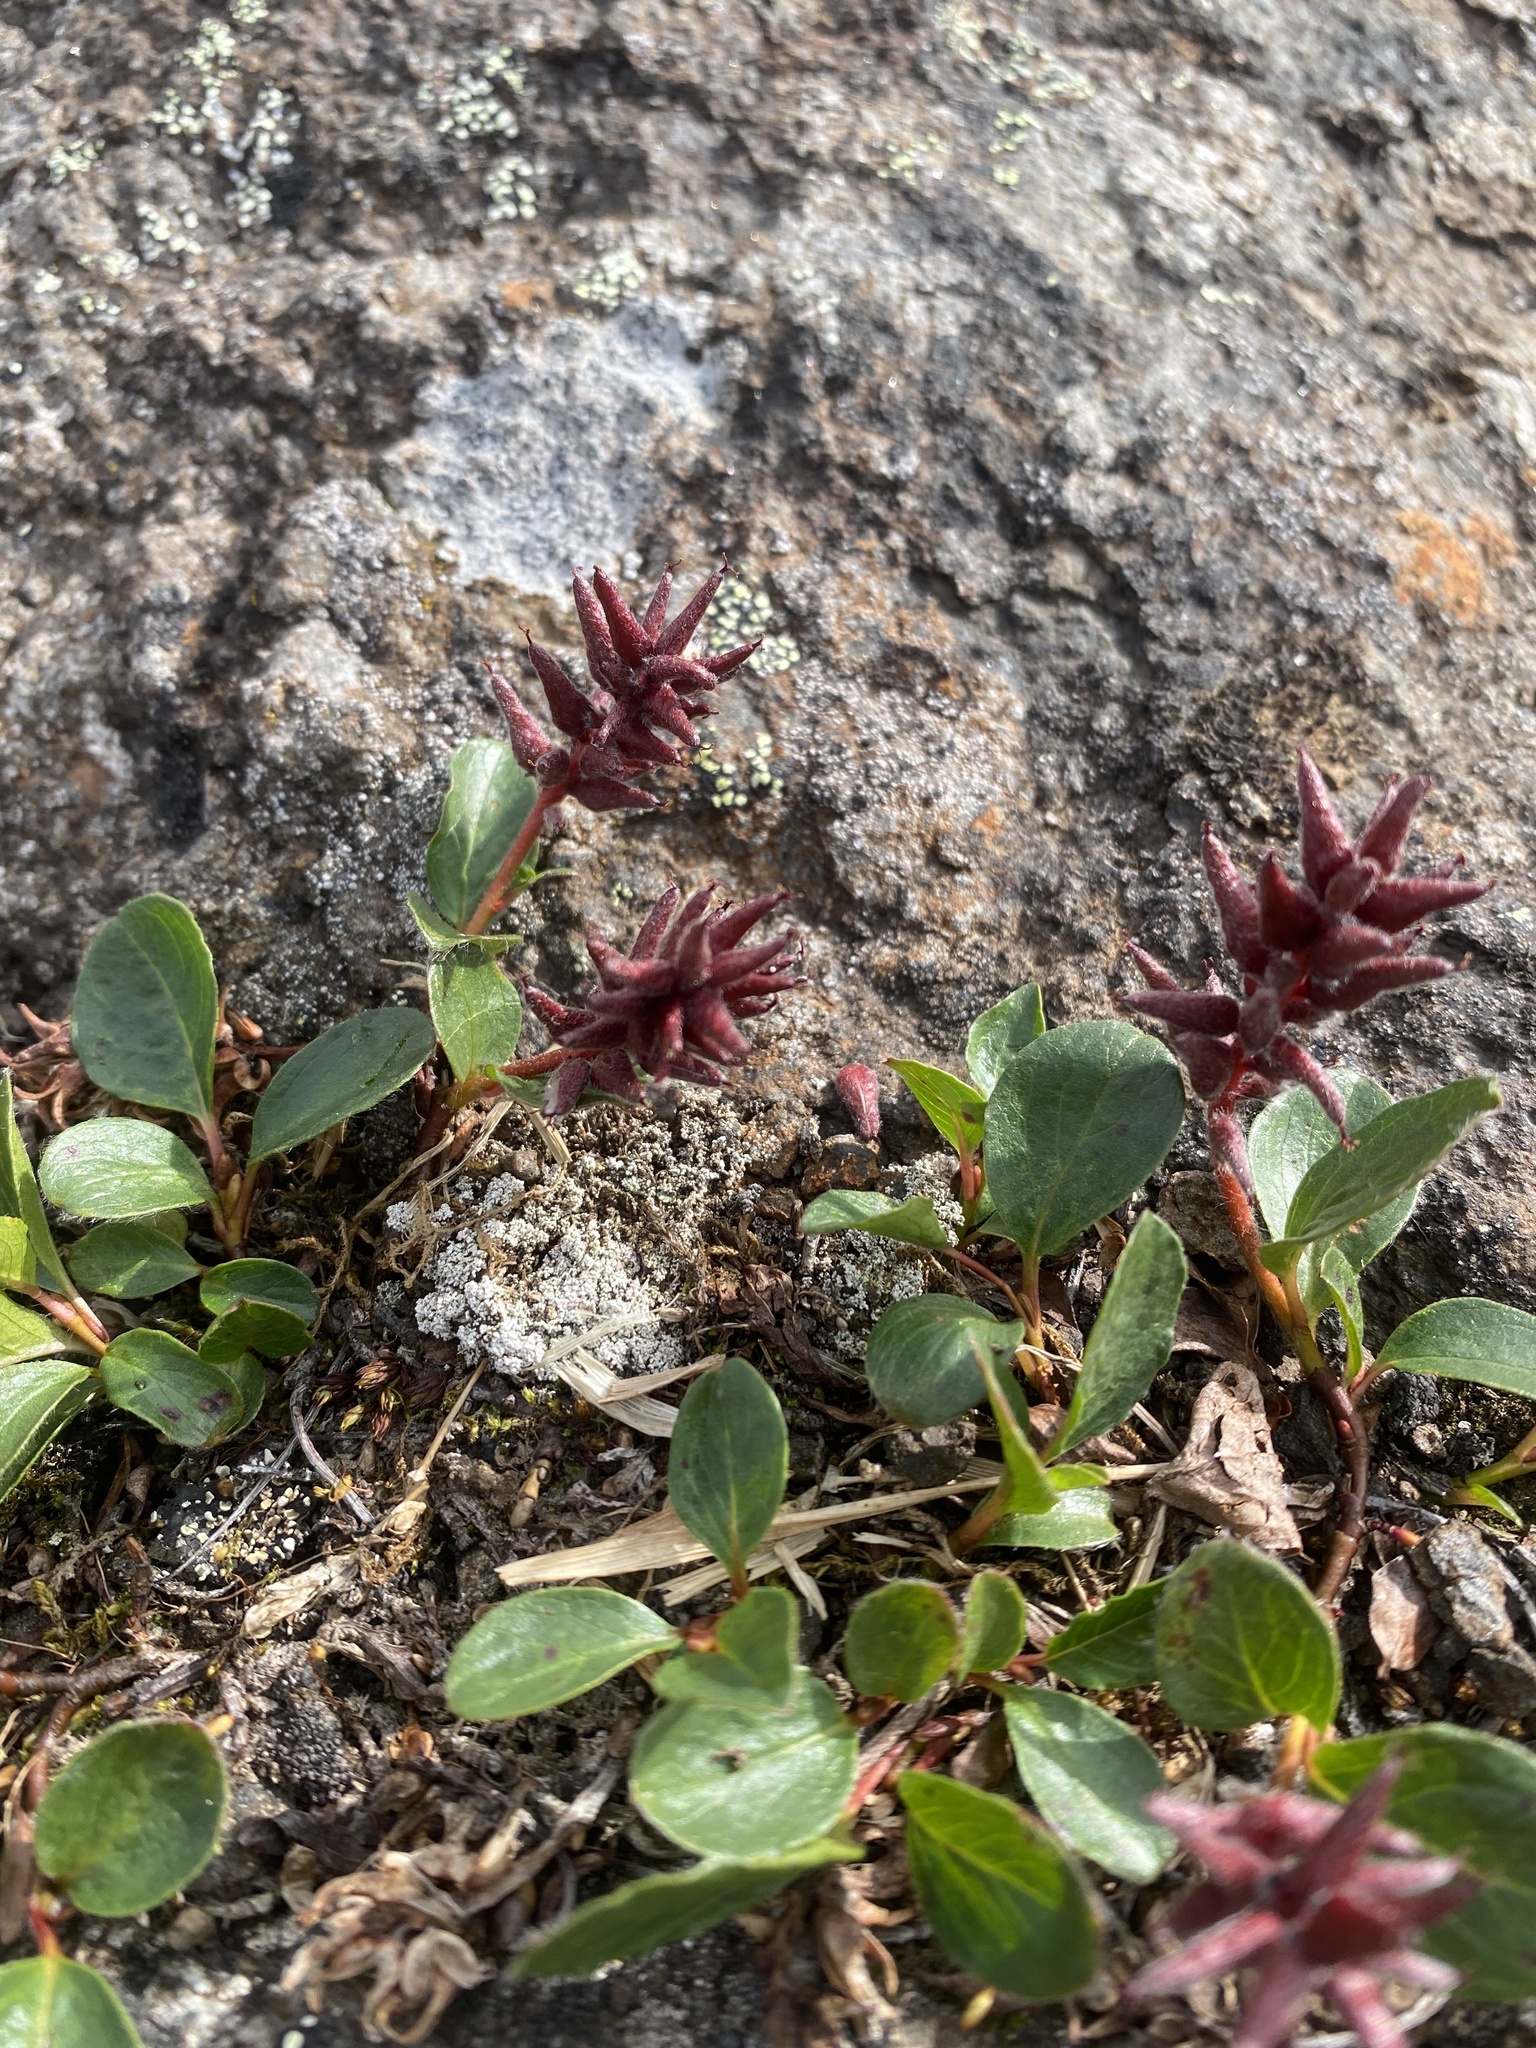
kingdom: Plantae
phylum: Tracheophyta
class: Magnoliopsida
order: Malpighiales
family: Salicaceae
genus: Salix
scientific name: Salix polaris
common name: Polar willow
